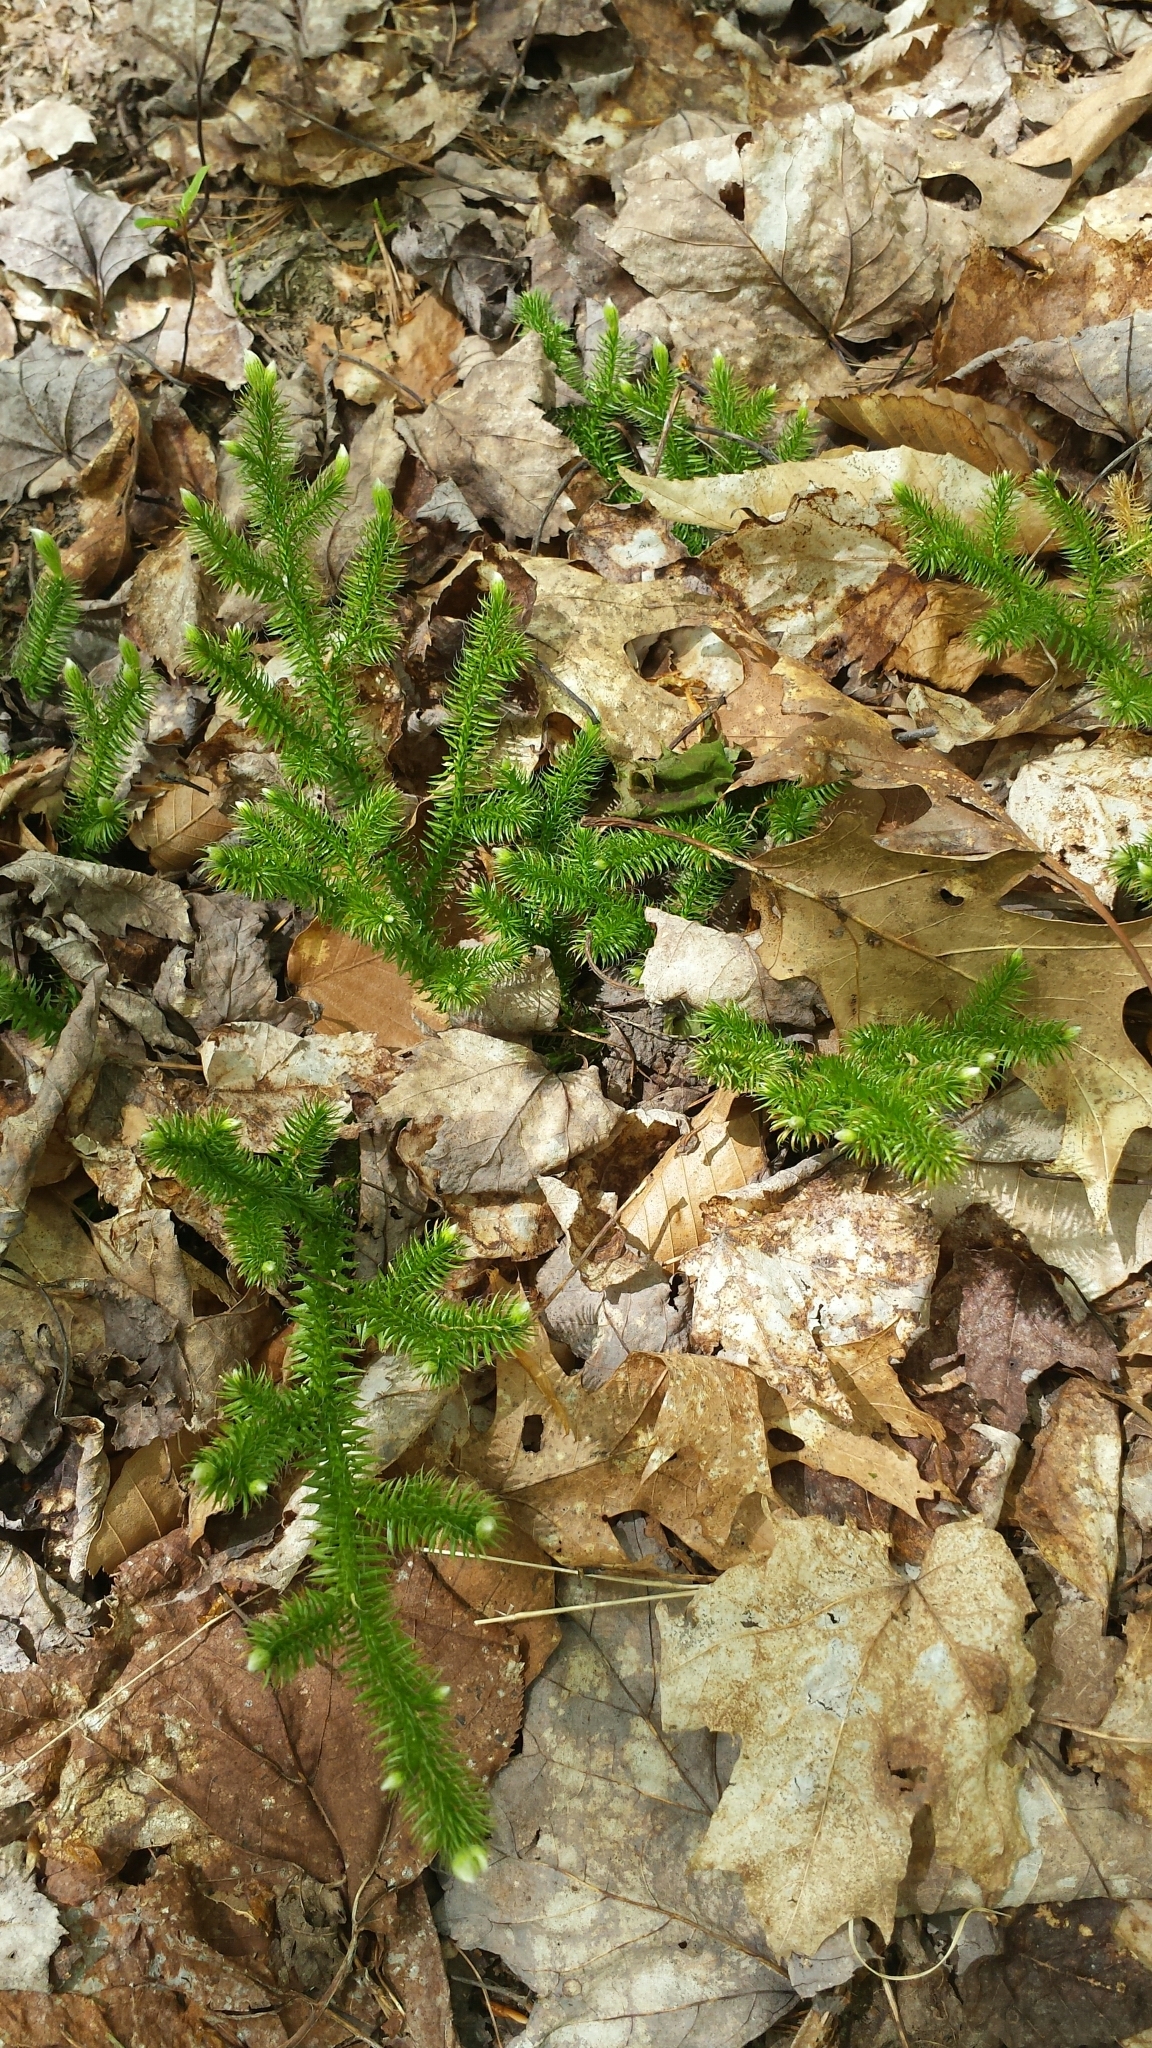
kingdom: Plantae
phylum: Tracheophyta
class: Lycopodiopsida
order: Lycopodiales
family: Lycopodiaceae
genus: Lycopodium
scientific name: Lycopodium clavatum
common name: Stag's-horn clubmoss
